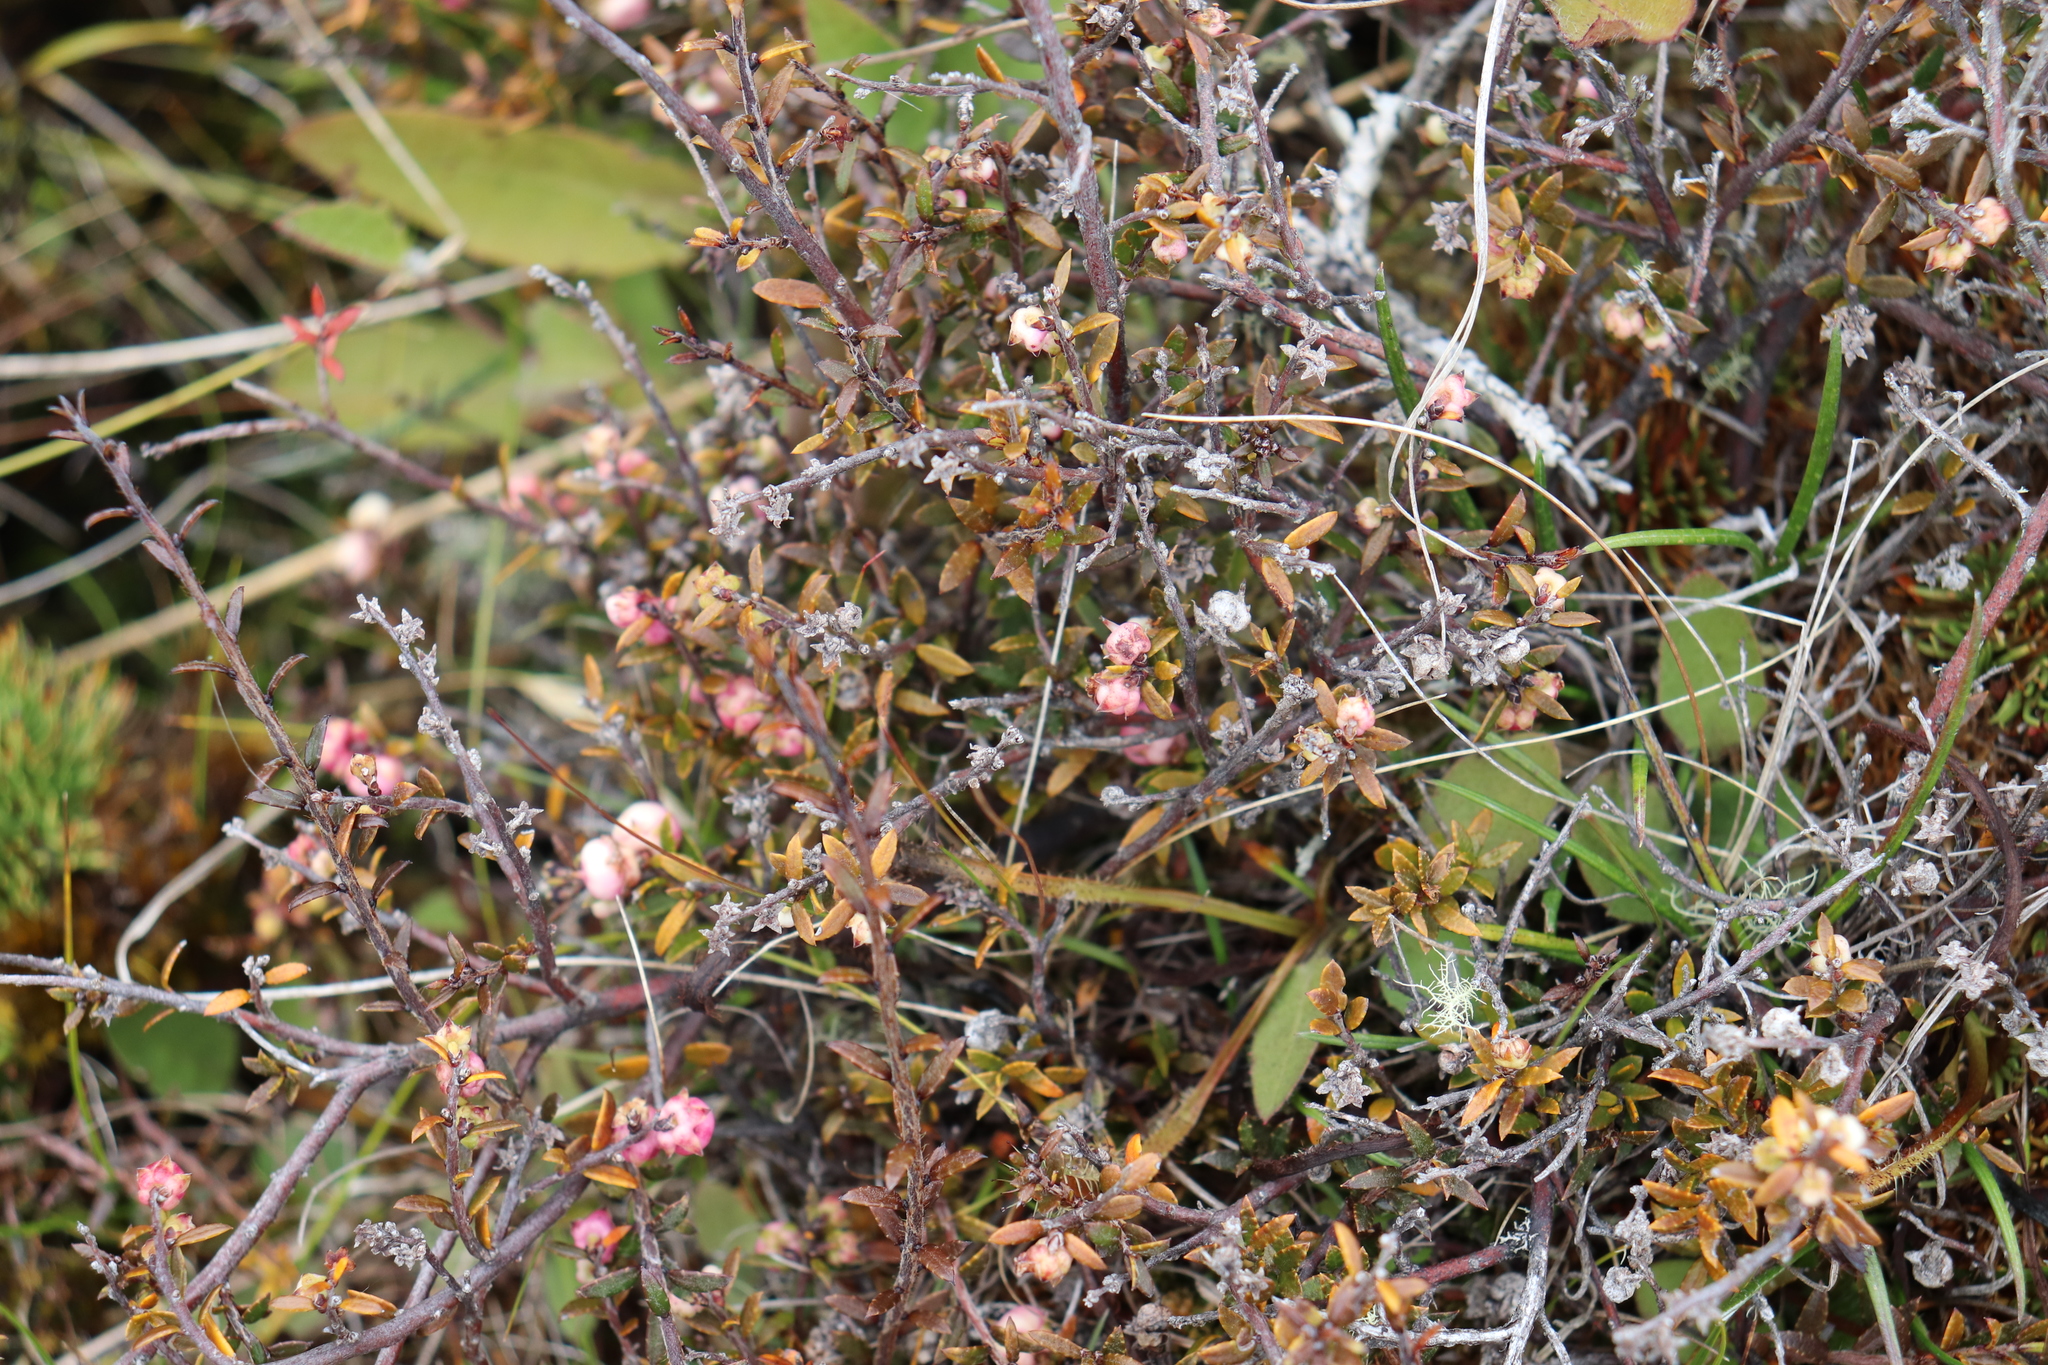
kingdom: Plantae
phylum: Tracheophyta
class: Magnoliopsida
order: Ericales
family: Ericaceae
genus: Gaultheria
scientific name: Gaultheria macrostigma
